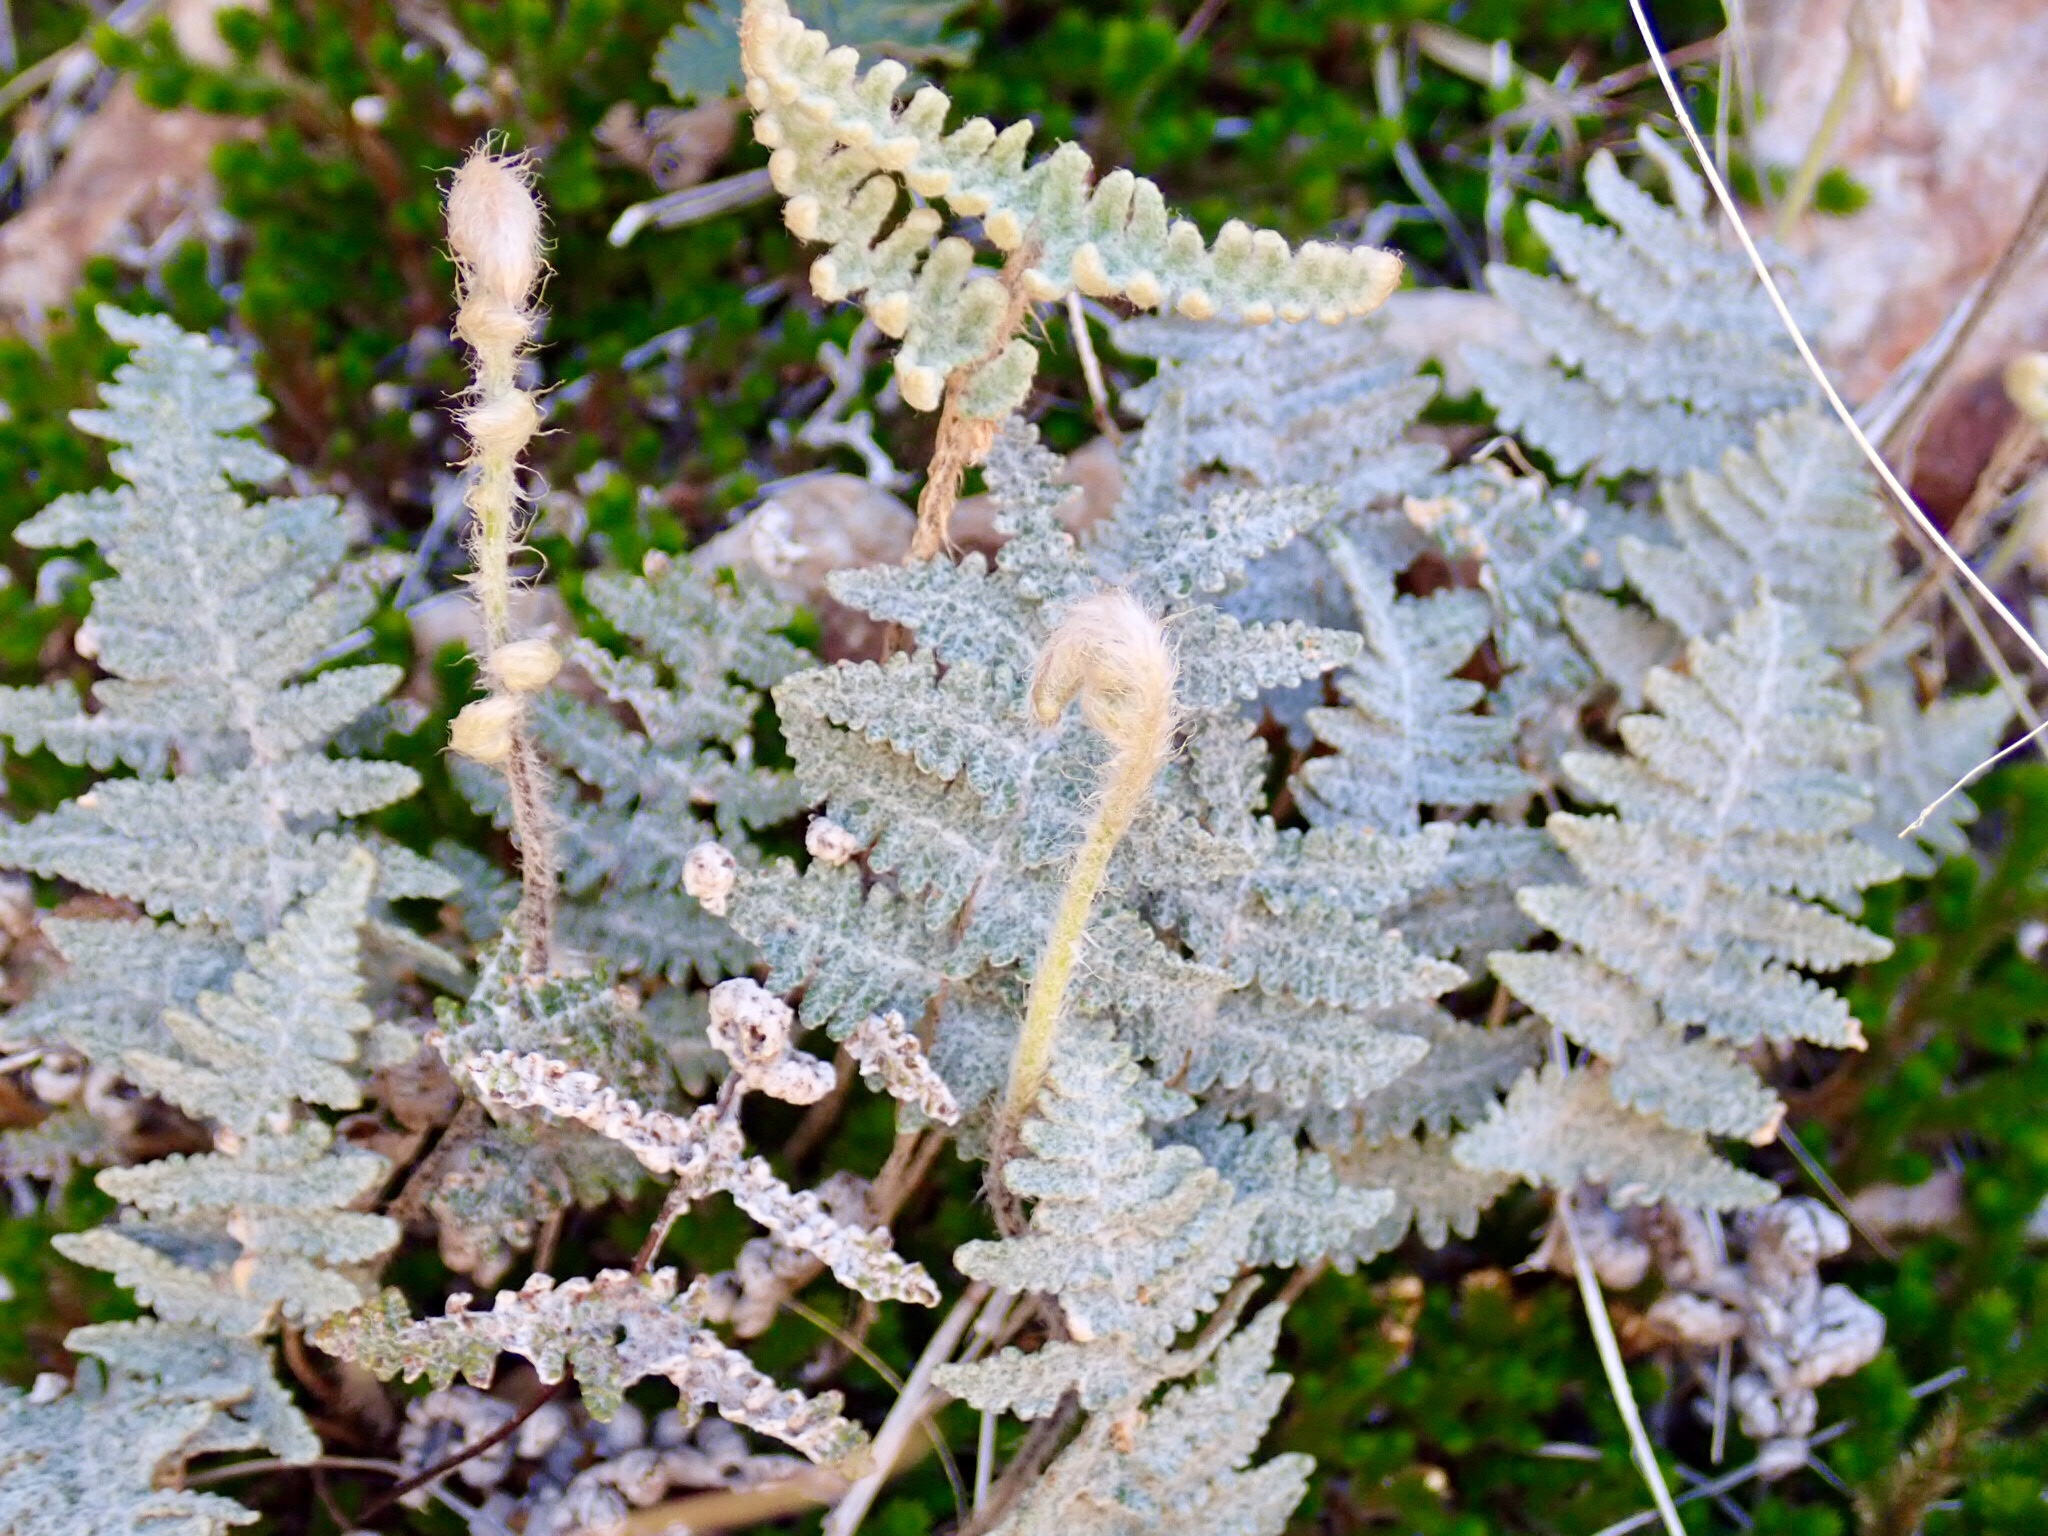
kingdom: Plantae
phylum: Tracheophyta
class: Polypodiopsida
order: Polypodiales
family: Pteridaceae
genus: Myriopteris
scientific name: Myriopteris lindheimeri
